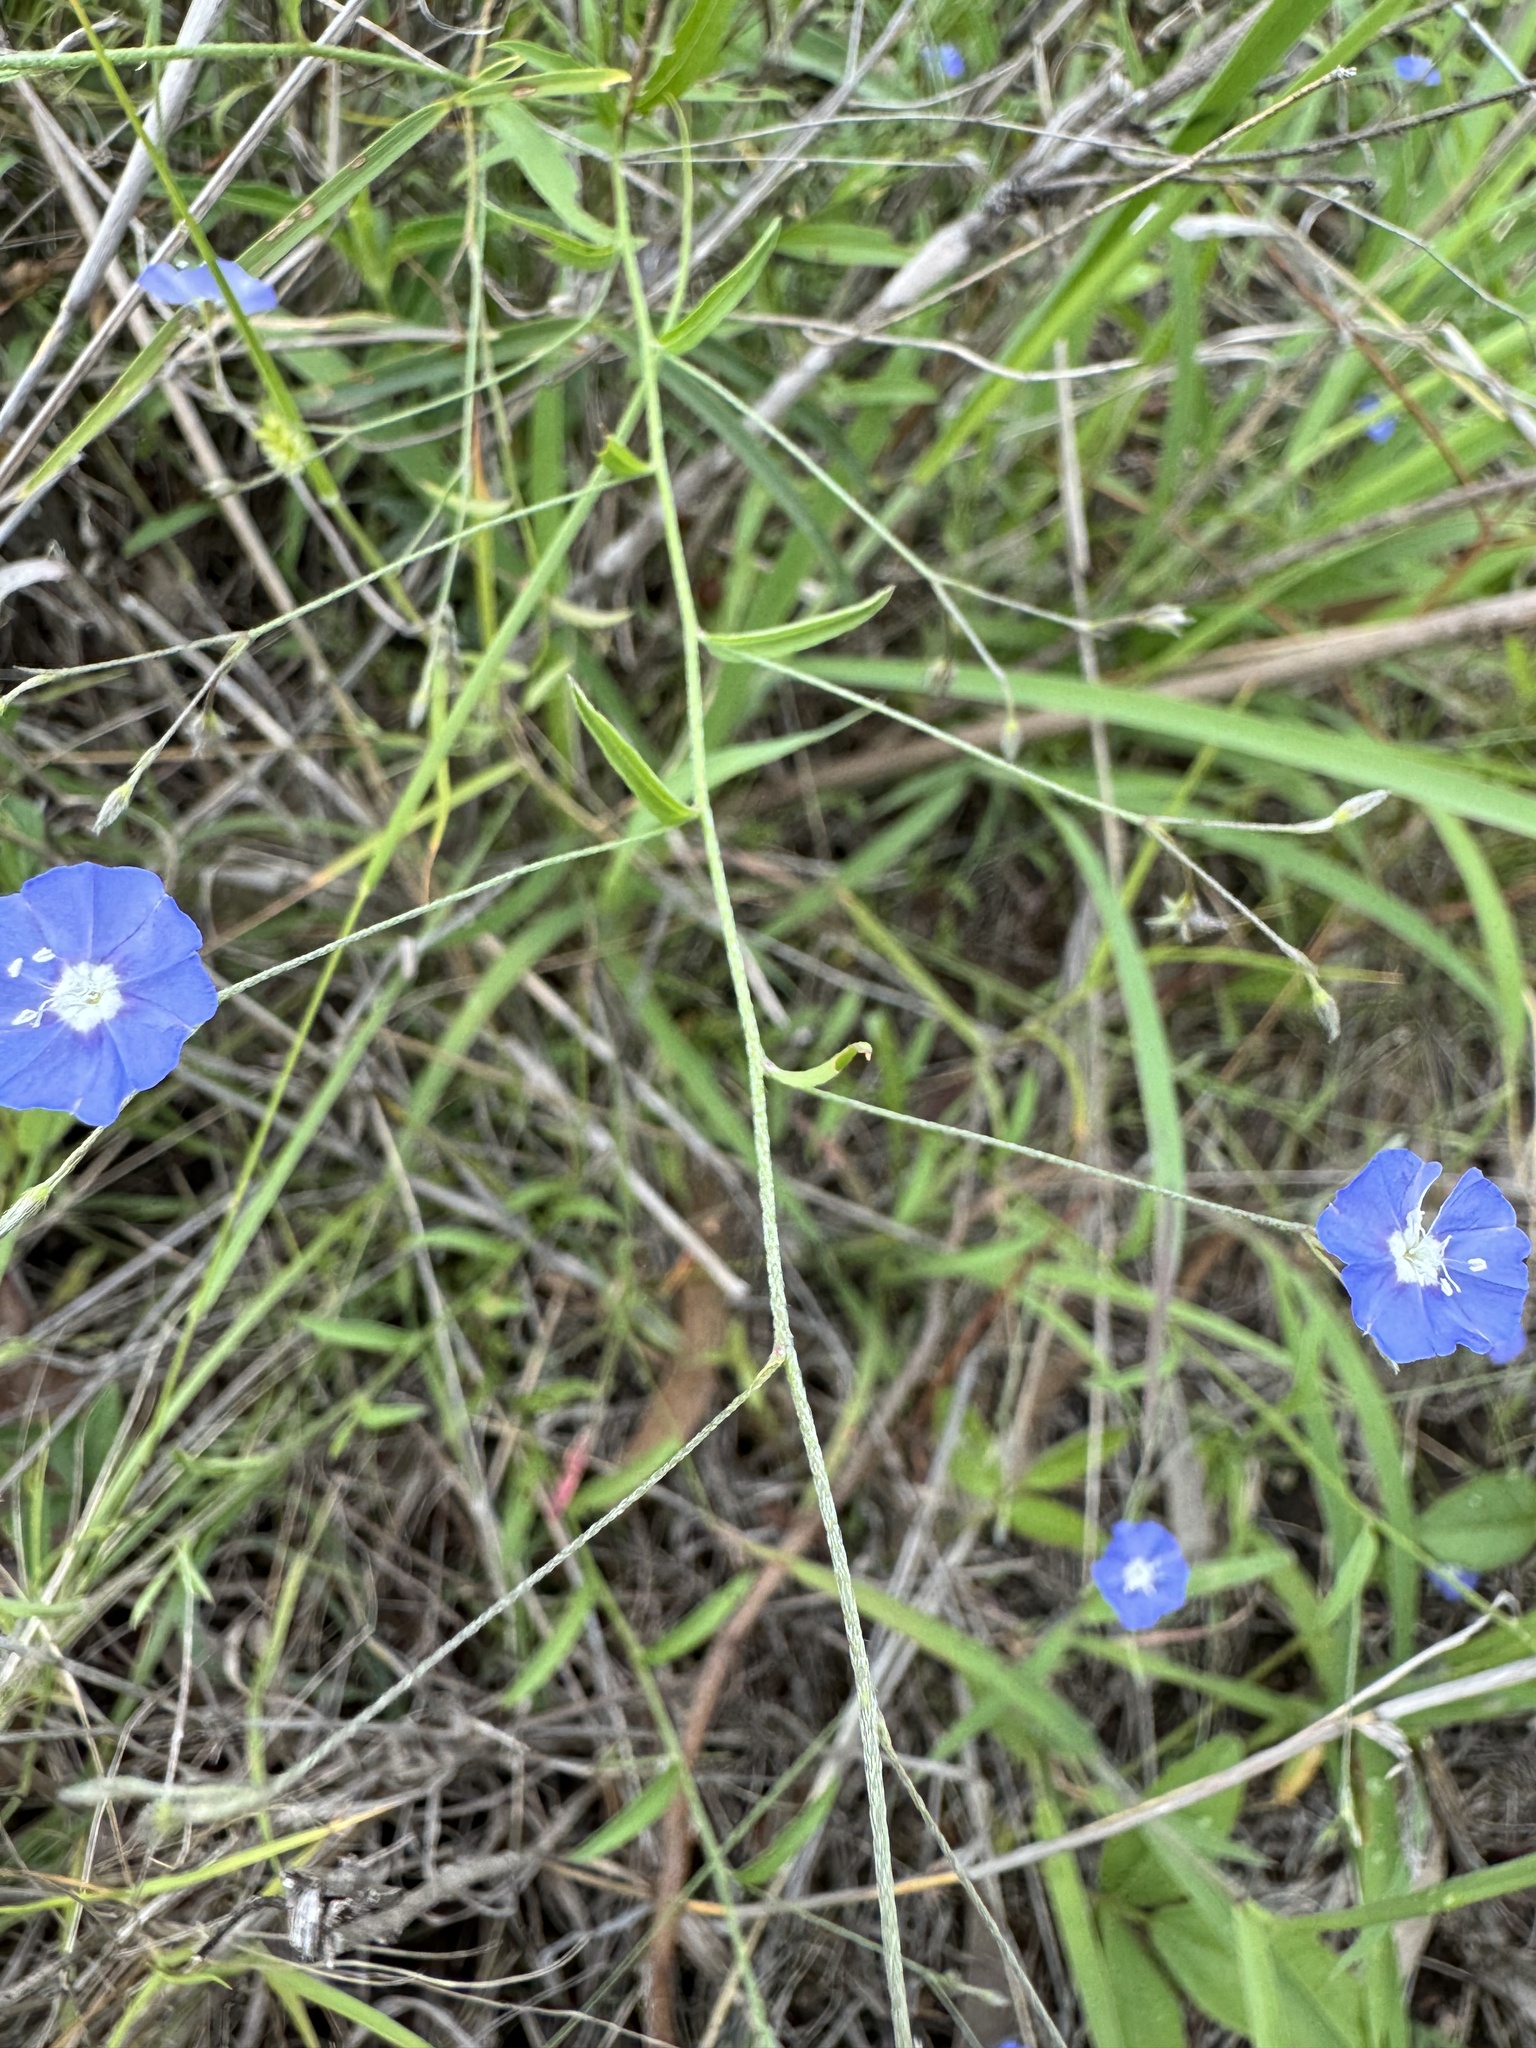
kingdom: Plantae
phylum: Tracheophyta
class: Magnoliopsida
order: Solanales
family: Convolvulaceae
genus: Evolvulus
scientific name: Evolvulus alsinoides
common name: Slender dwarf morning-glory
